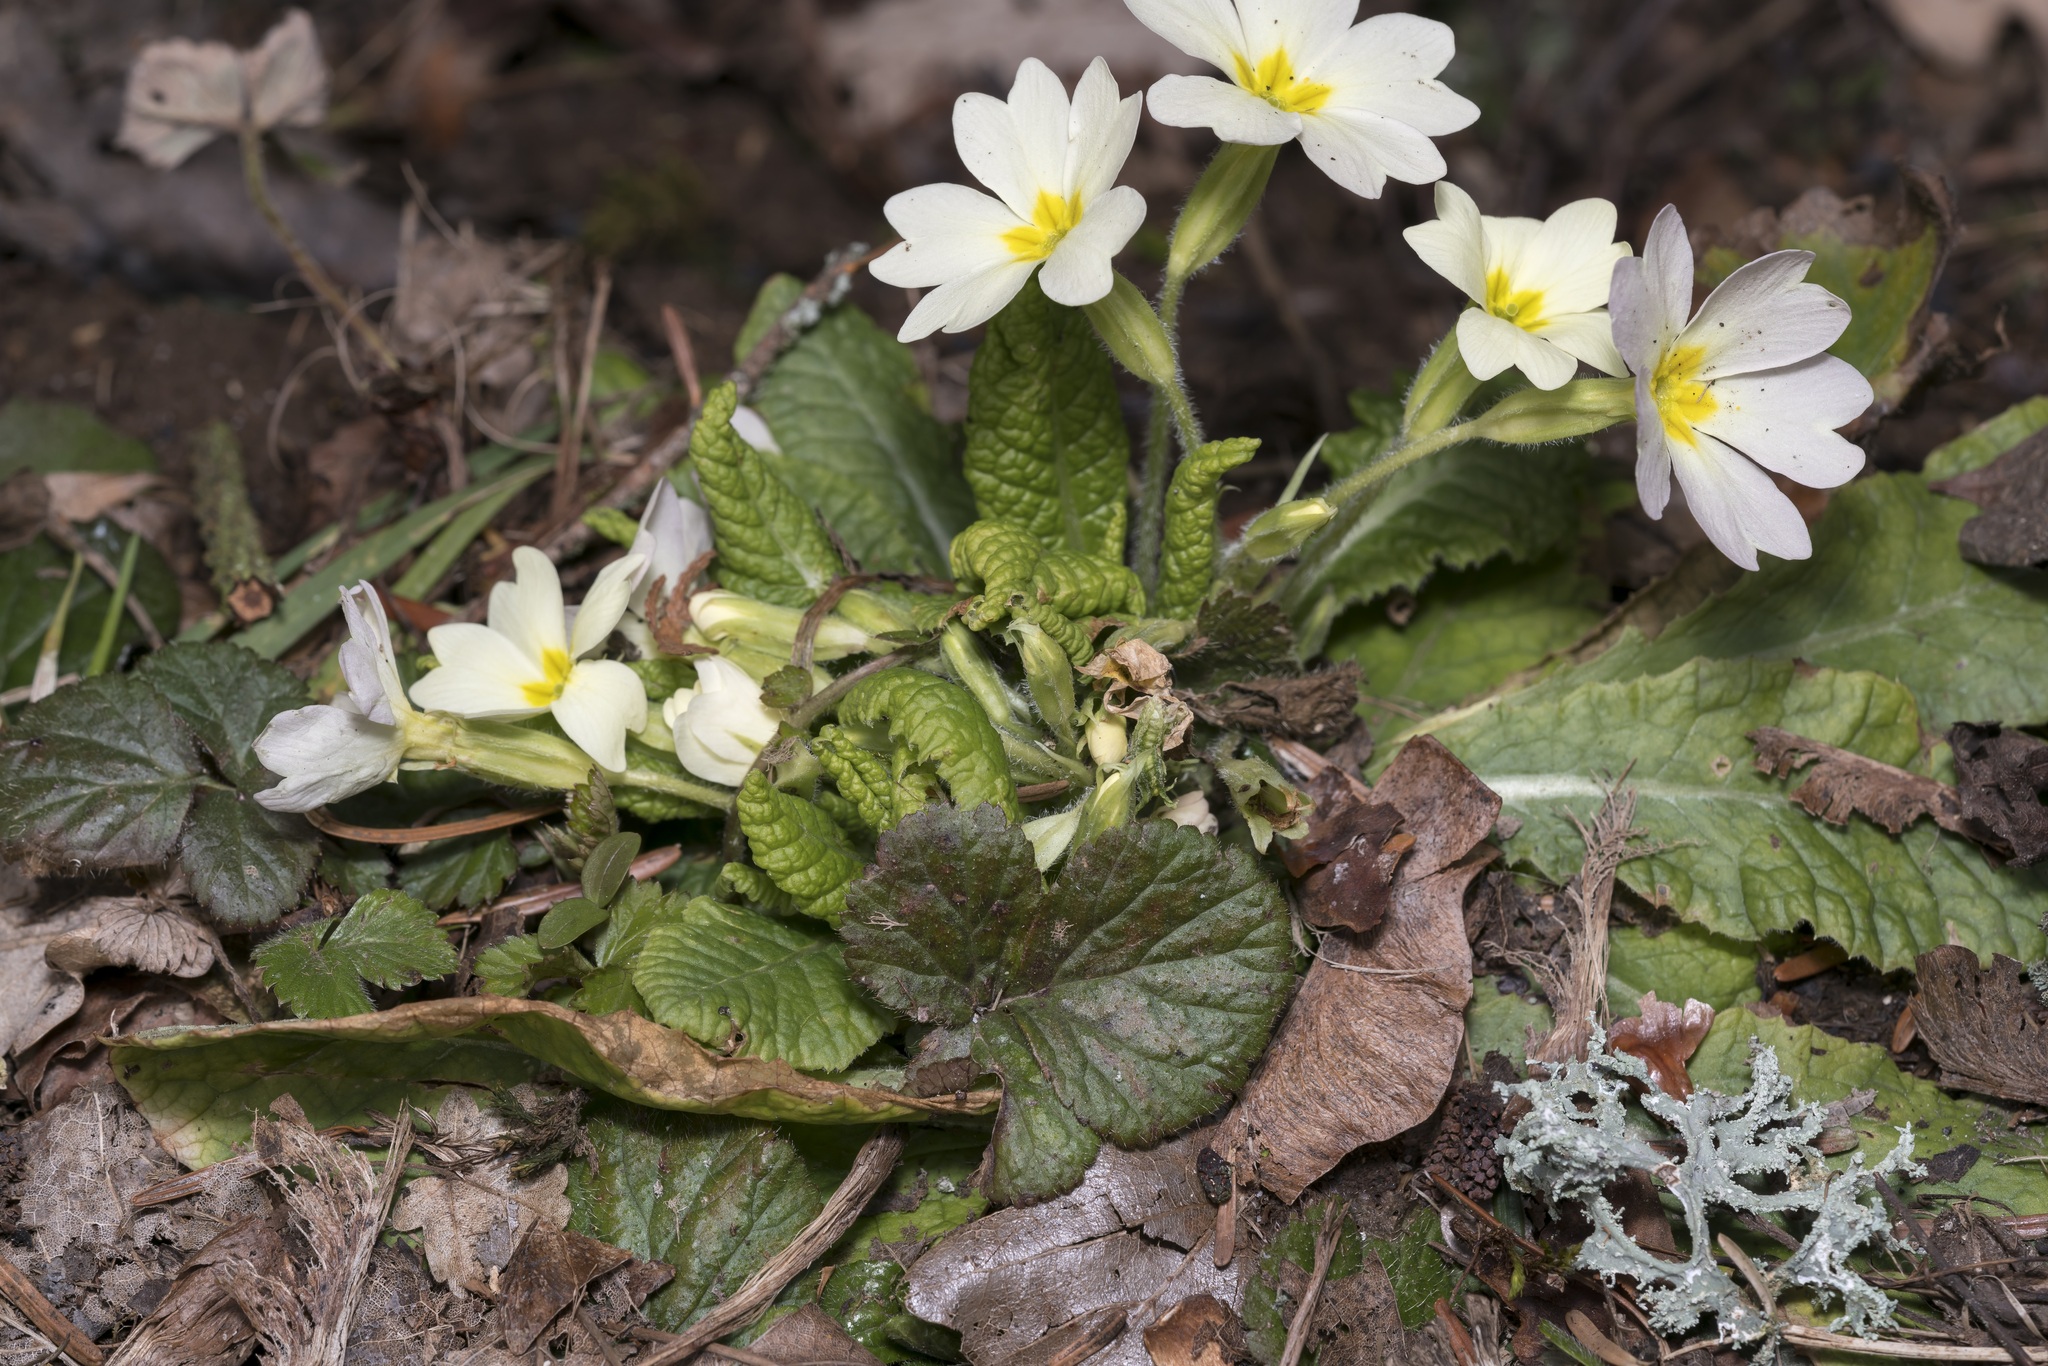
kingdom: Plantae
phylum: Tracheophyta
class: Magnoliopsida
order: Ericales
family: Primulaceae
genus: Primula
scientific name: Primula vulgaris
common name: Primrose
